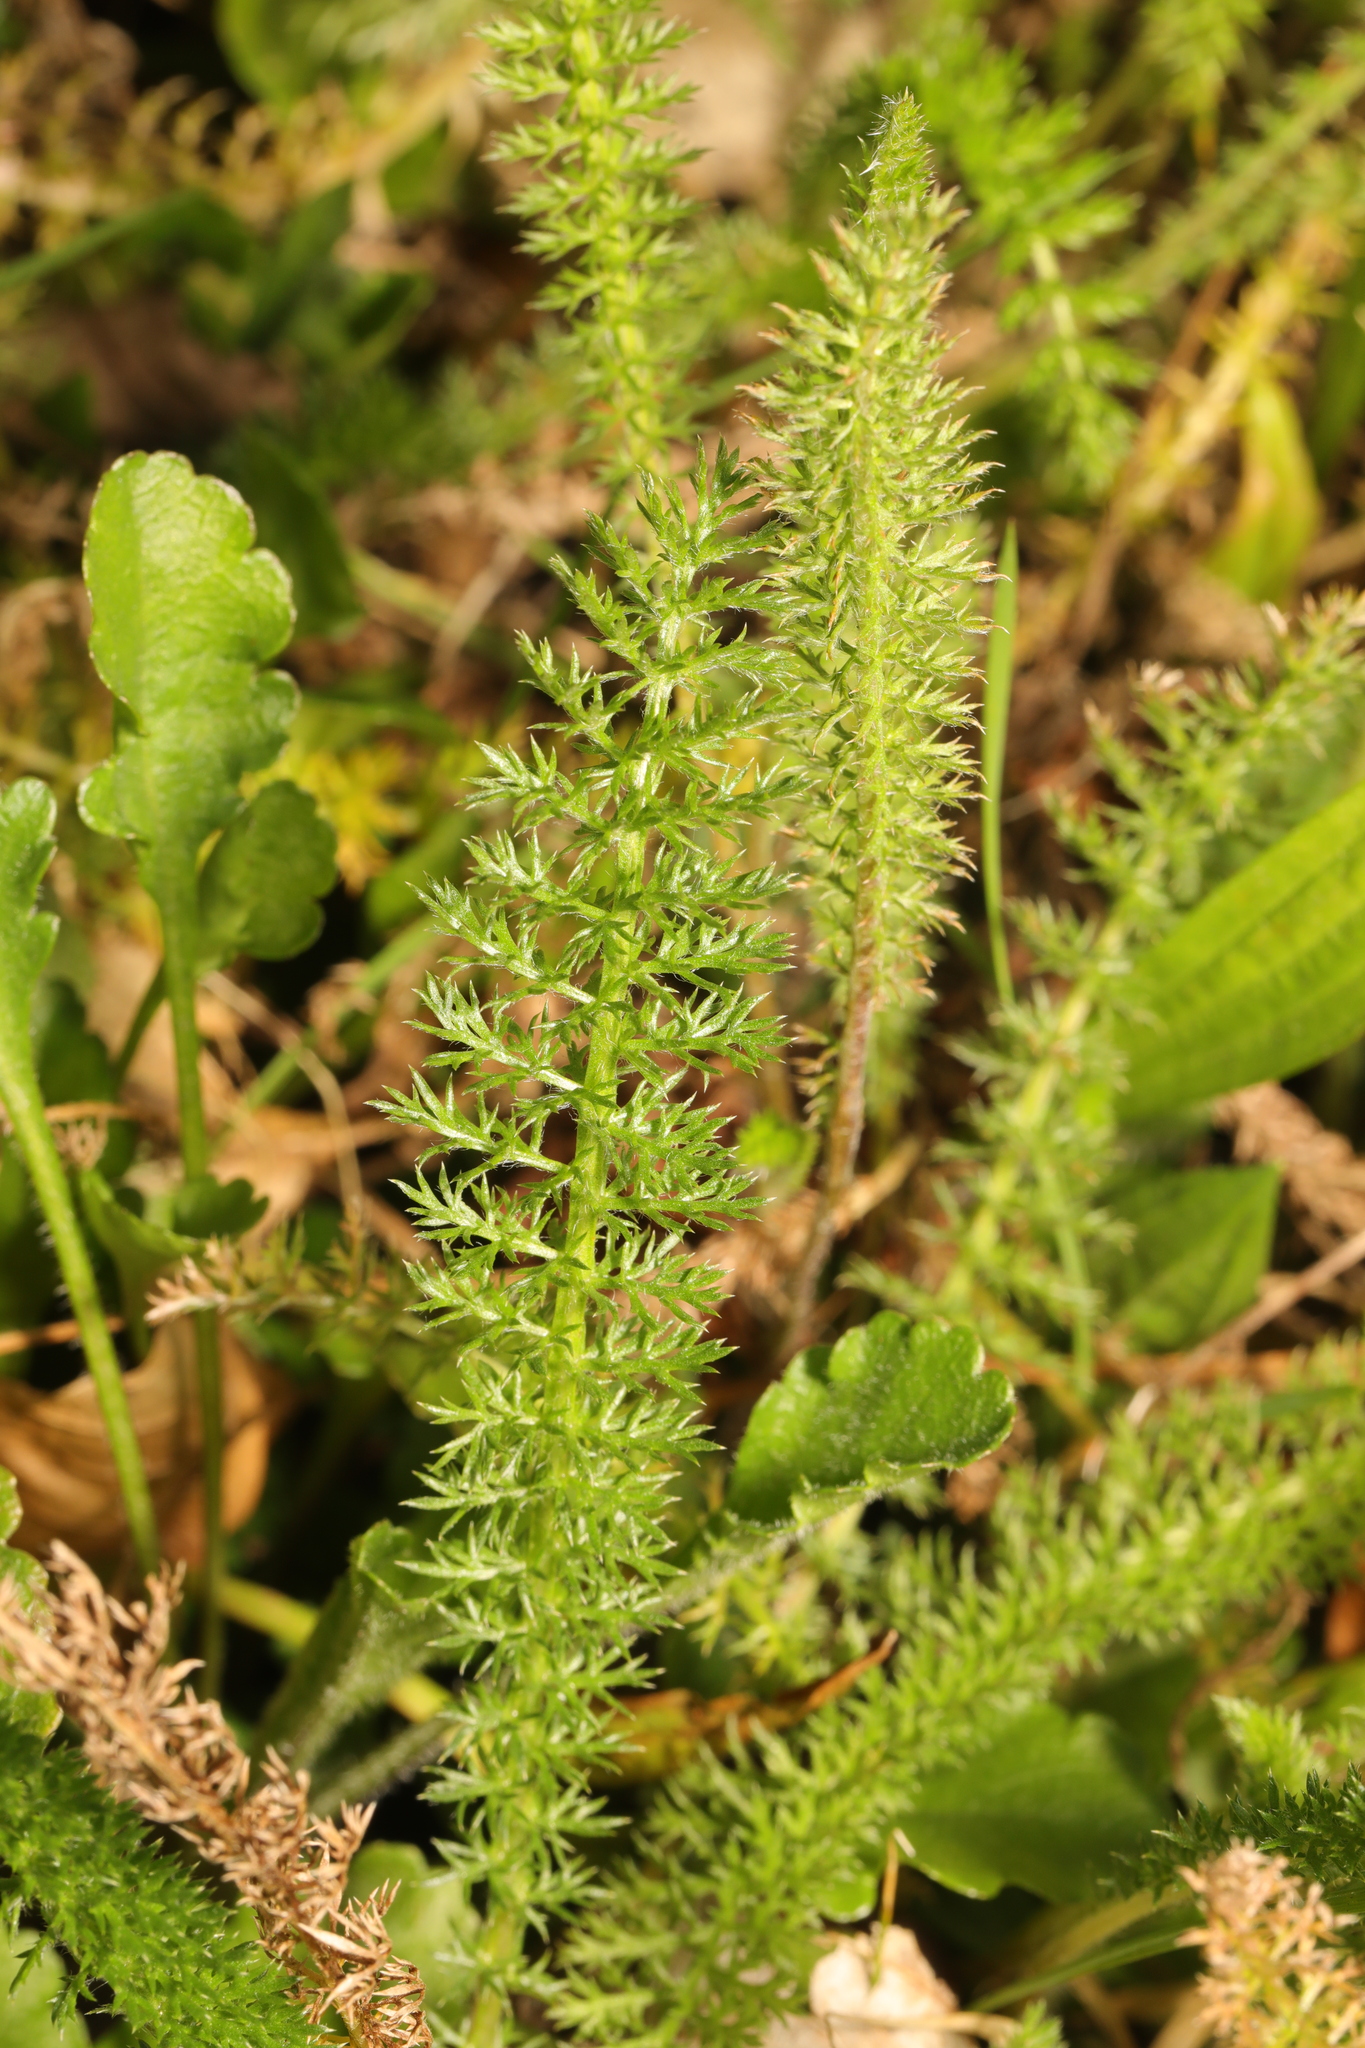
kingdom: Plantae
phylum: Tracheophyta
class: Magnoliopsida
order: Asterales
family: Asteraceae
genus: Achillea
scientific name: Achillea millefolium
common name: Yarrow
